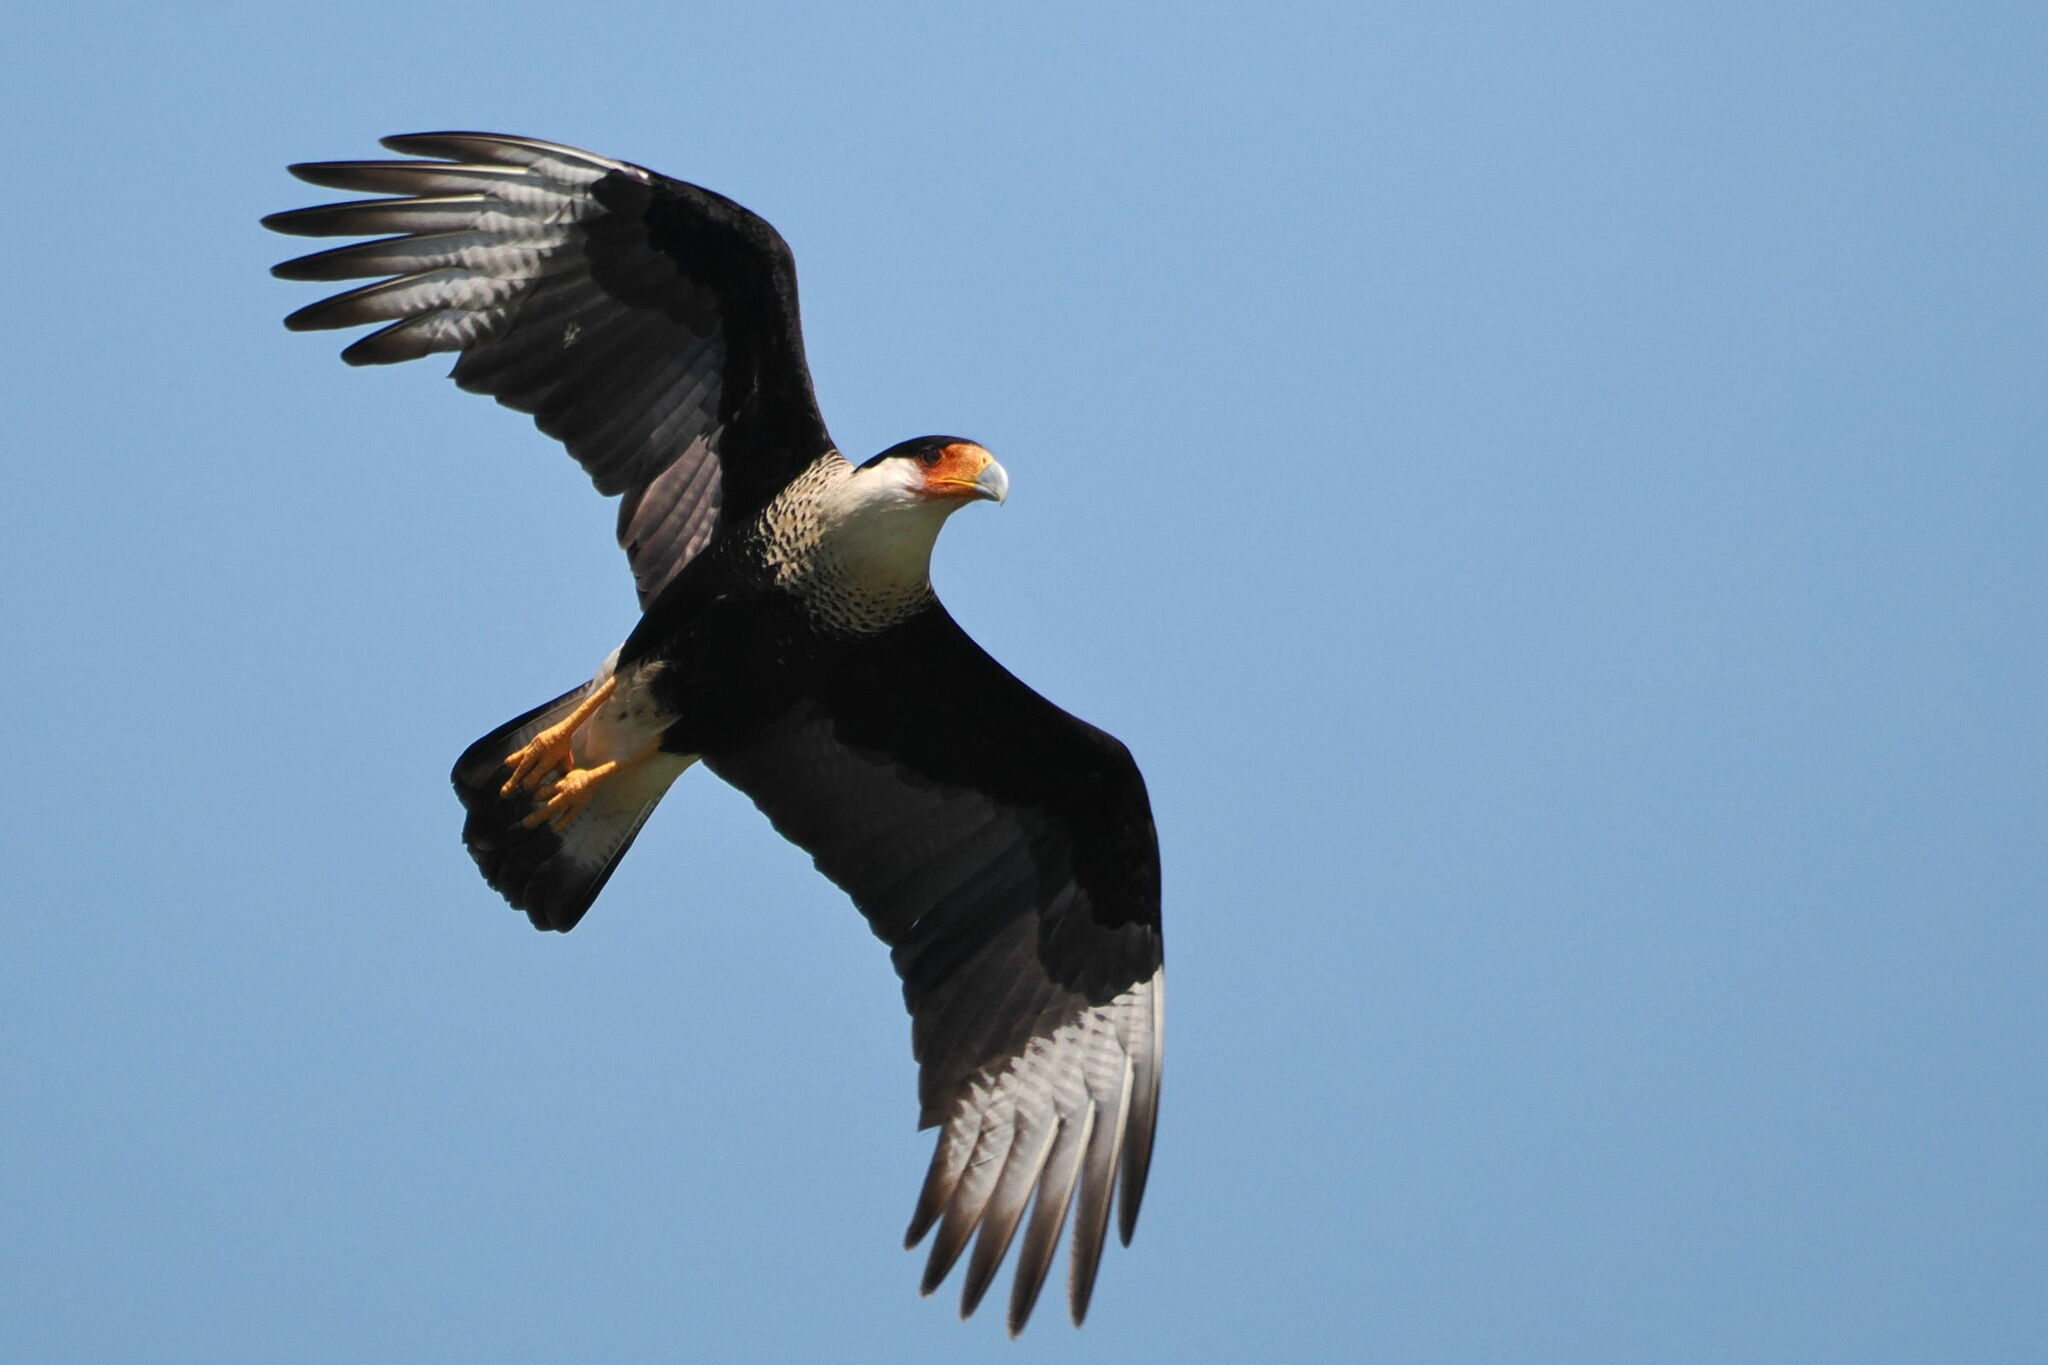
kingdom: Animalia
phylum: Chordata
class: Aves
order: Falconiformes
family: Falconidae
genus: Caracara
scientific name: Caracara plancus
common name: Southern caracara
